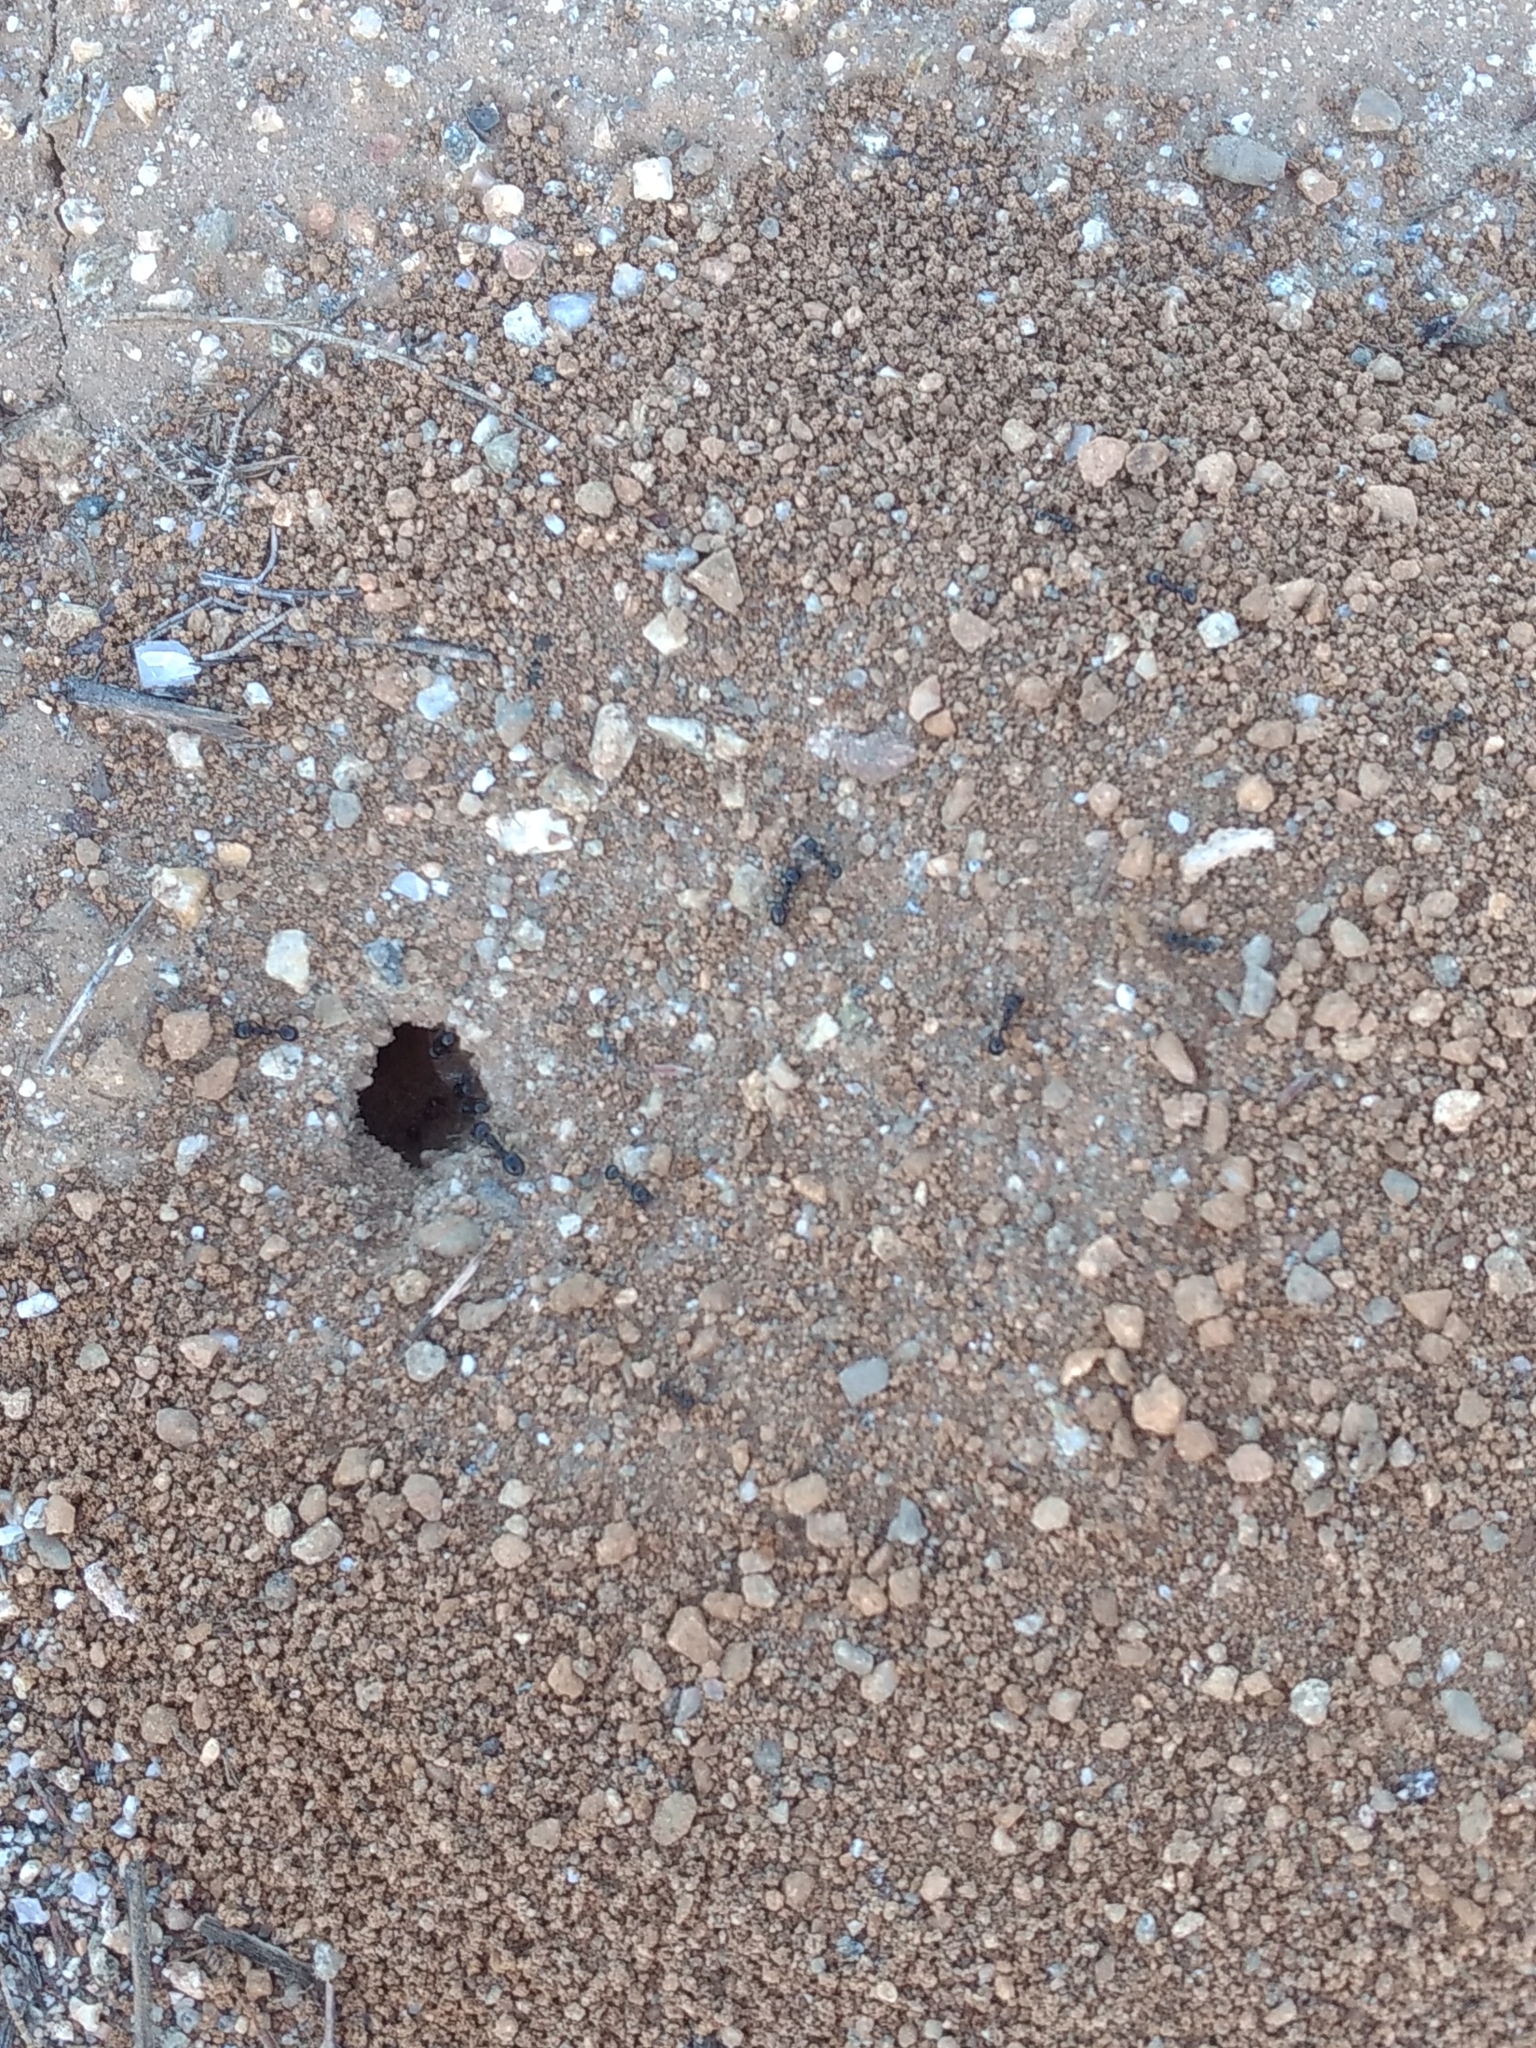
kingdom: Animalia
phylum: Arthropoda
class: Insecta
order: Hymenoptera
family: Formicidae
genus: Messor
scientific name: Messor pergandei
